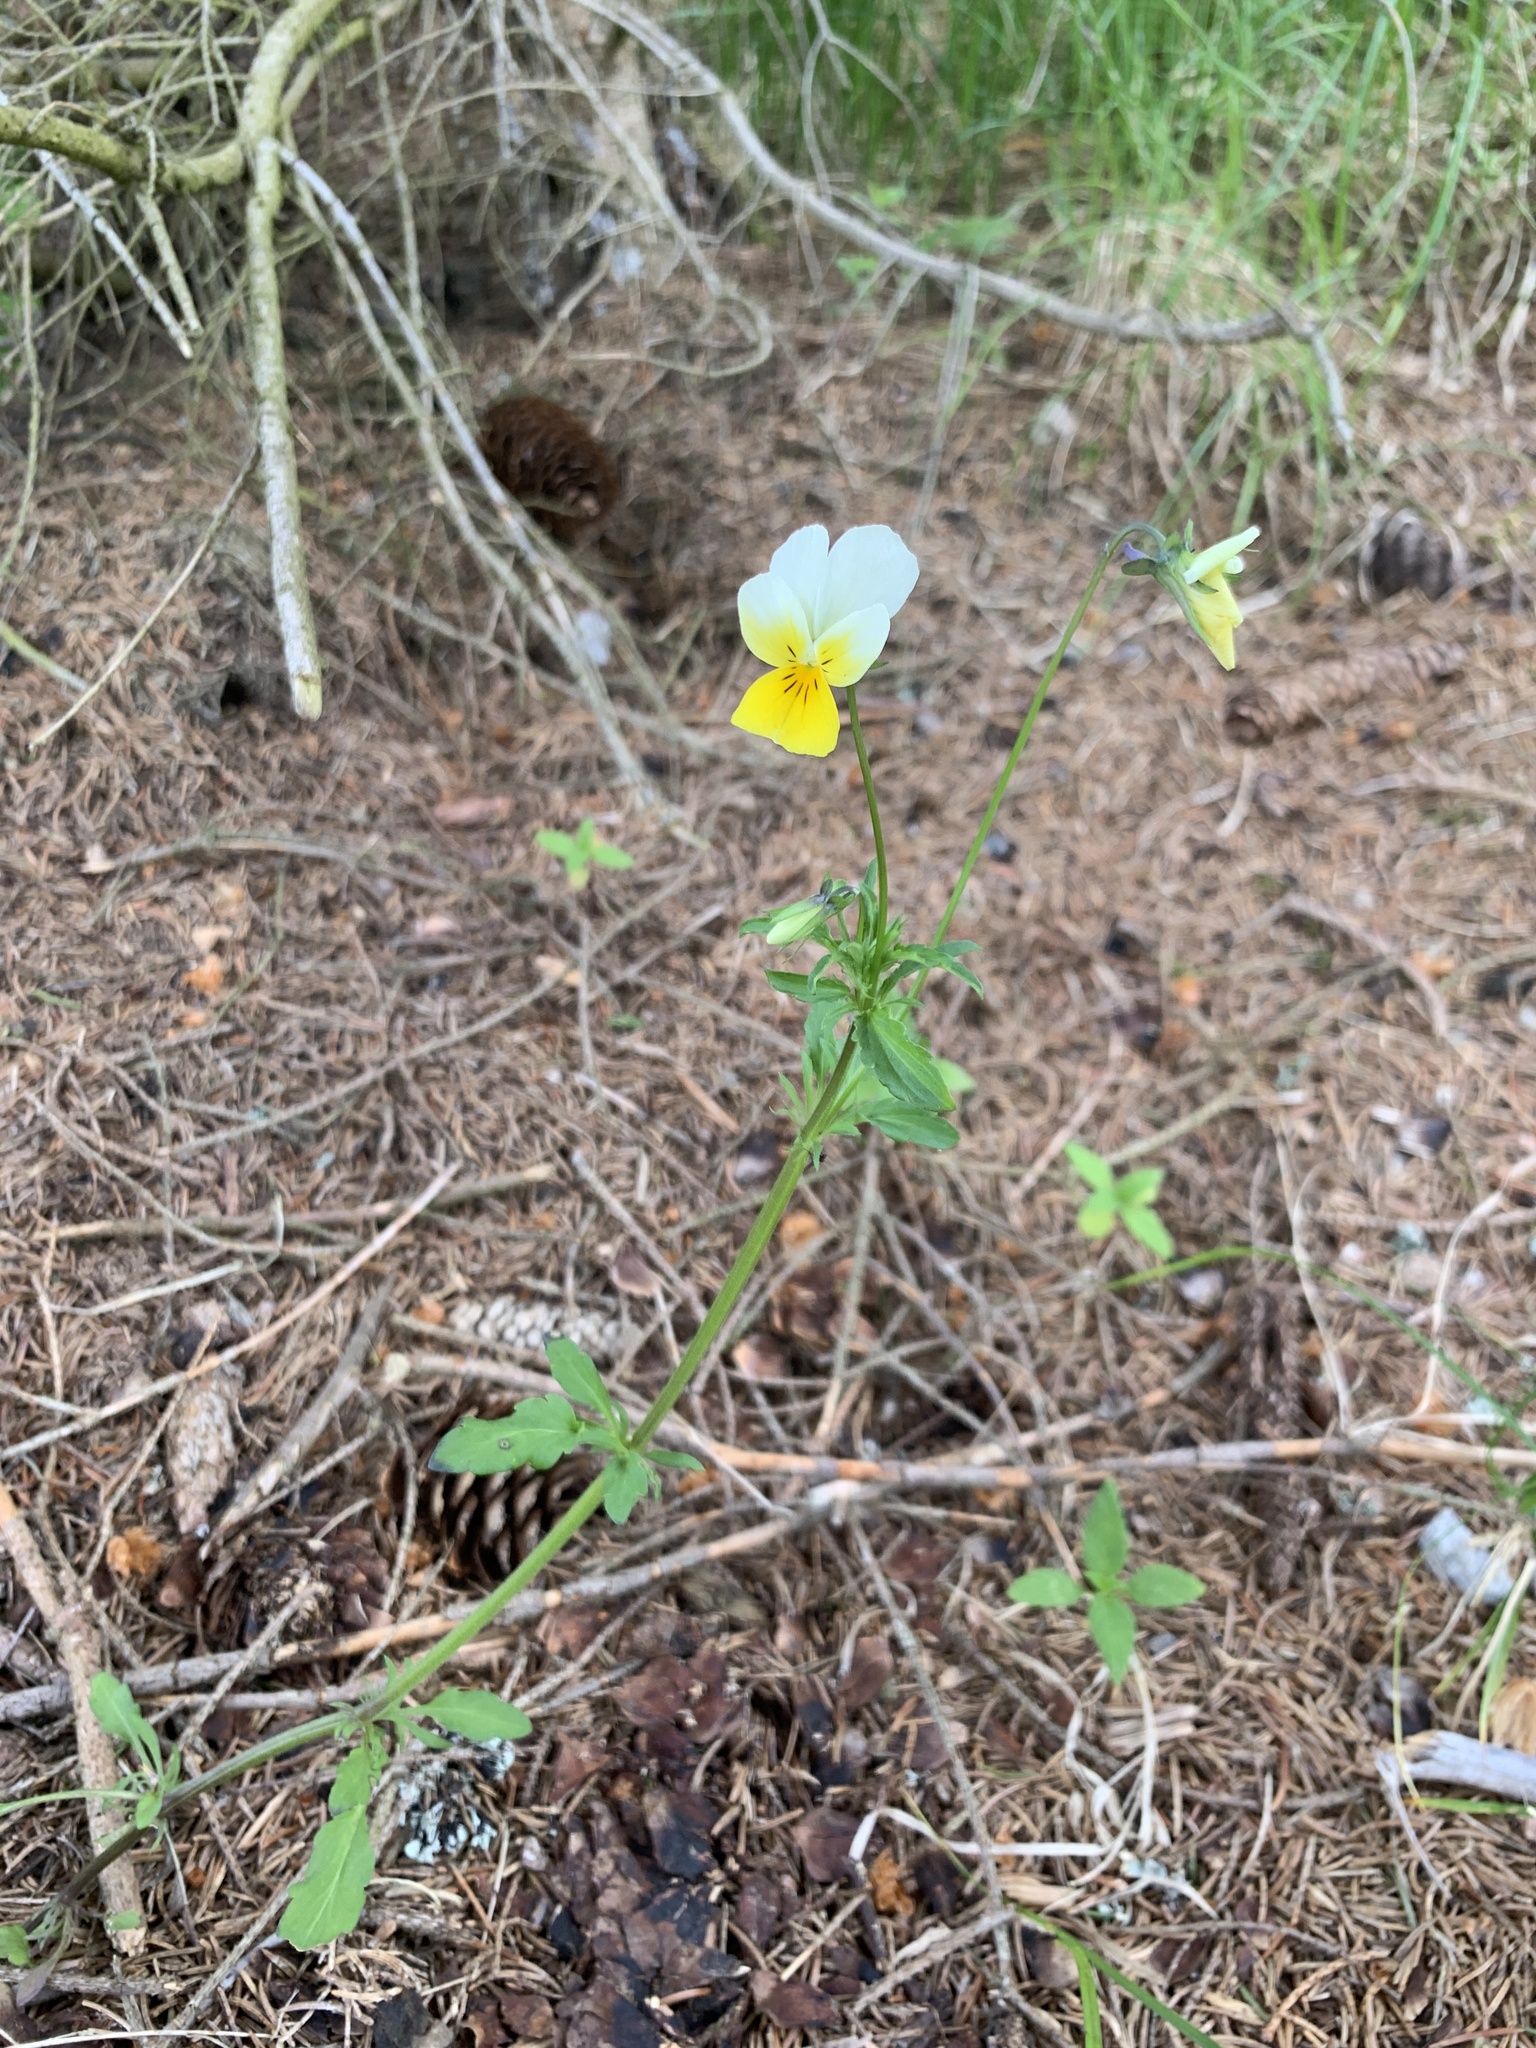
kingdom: Plantae
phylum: Tracheophyta
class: Magnoliopsida
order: Malpighiales
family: Violaceae
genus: Viola
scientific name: Viola tricolor
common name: Pansy
